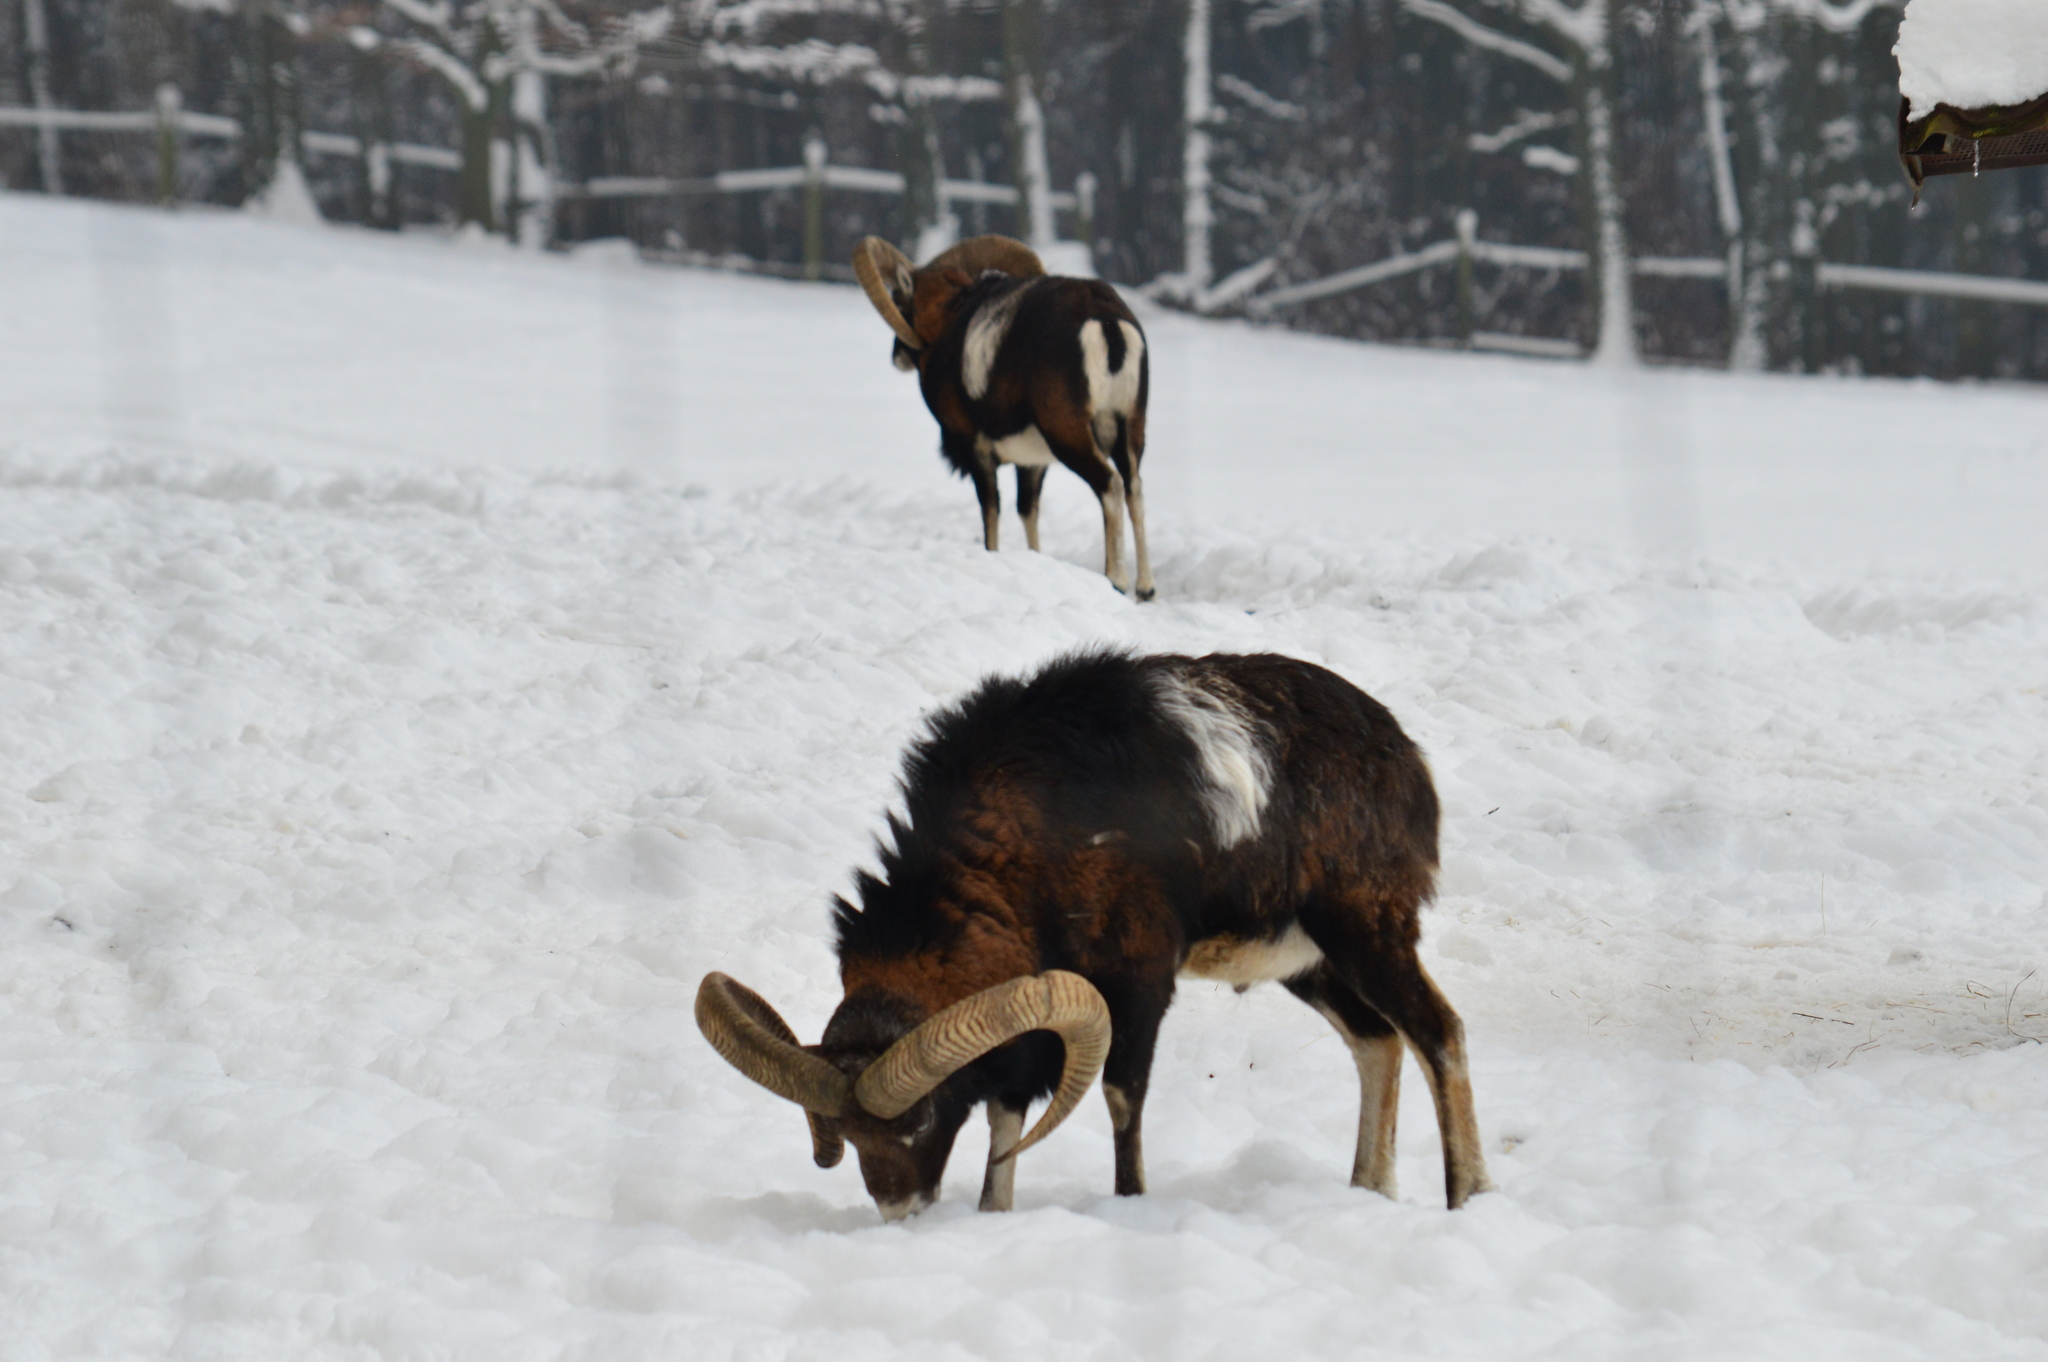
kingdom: Animalia
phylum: Chordata
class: Mammalia
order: Artiodactyla
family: Bovidae
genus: Ovis
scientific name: Ovis aries
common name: Domestic sheep
